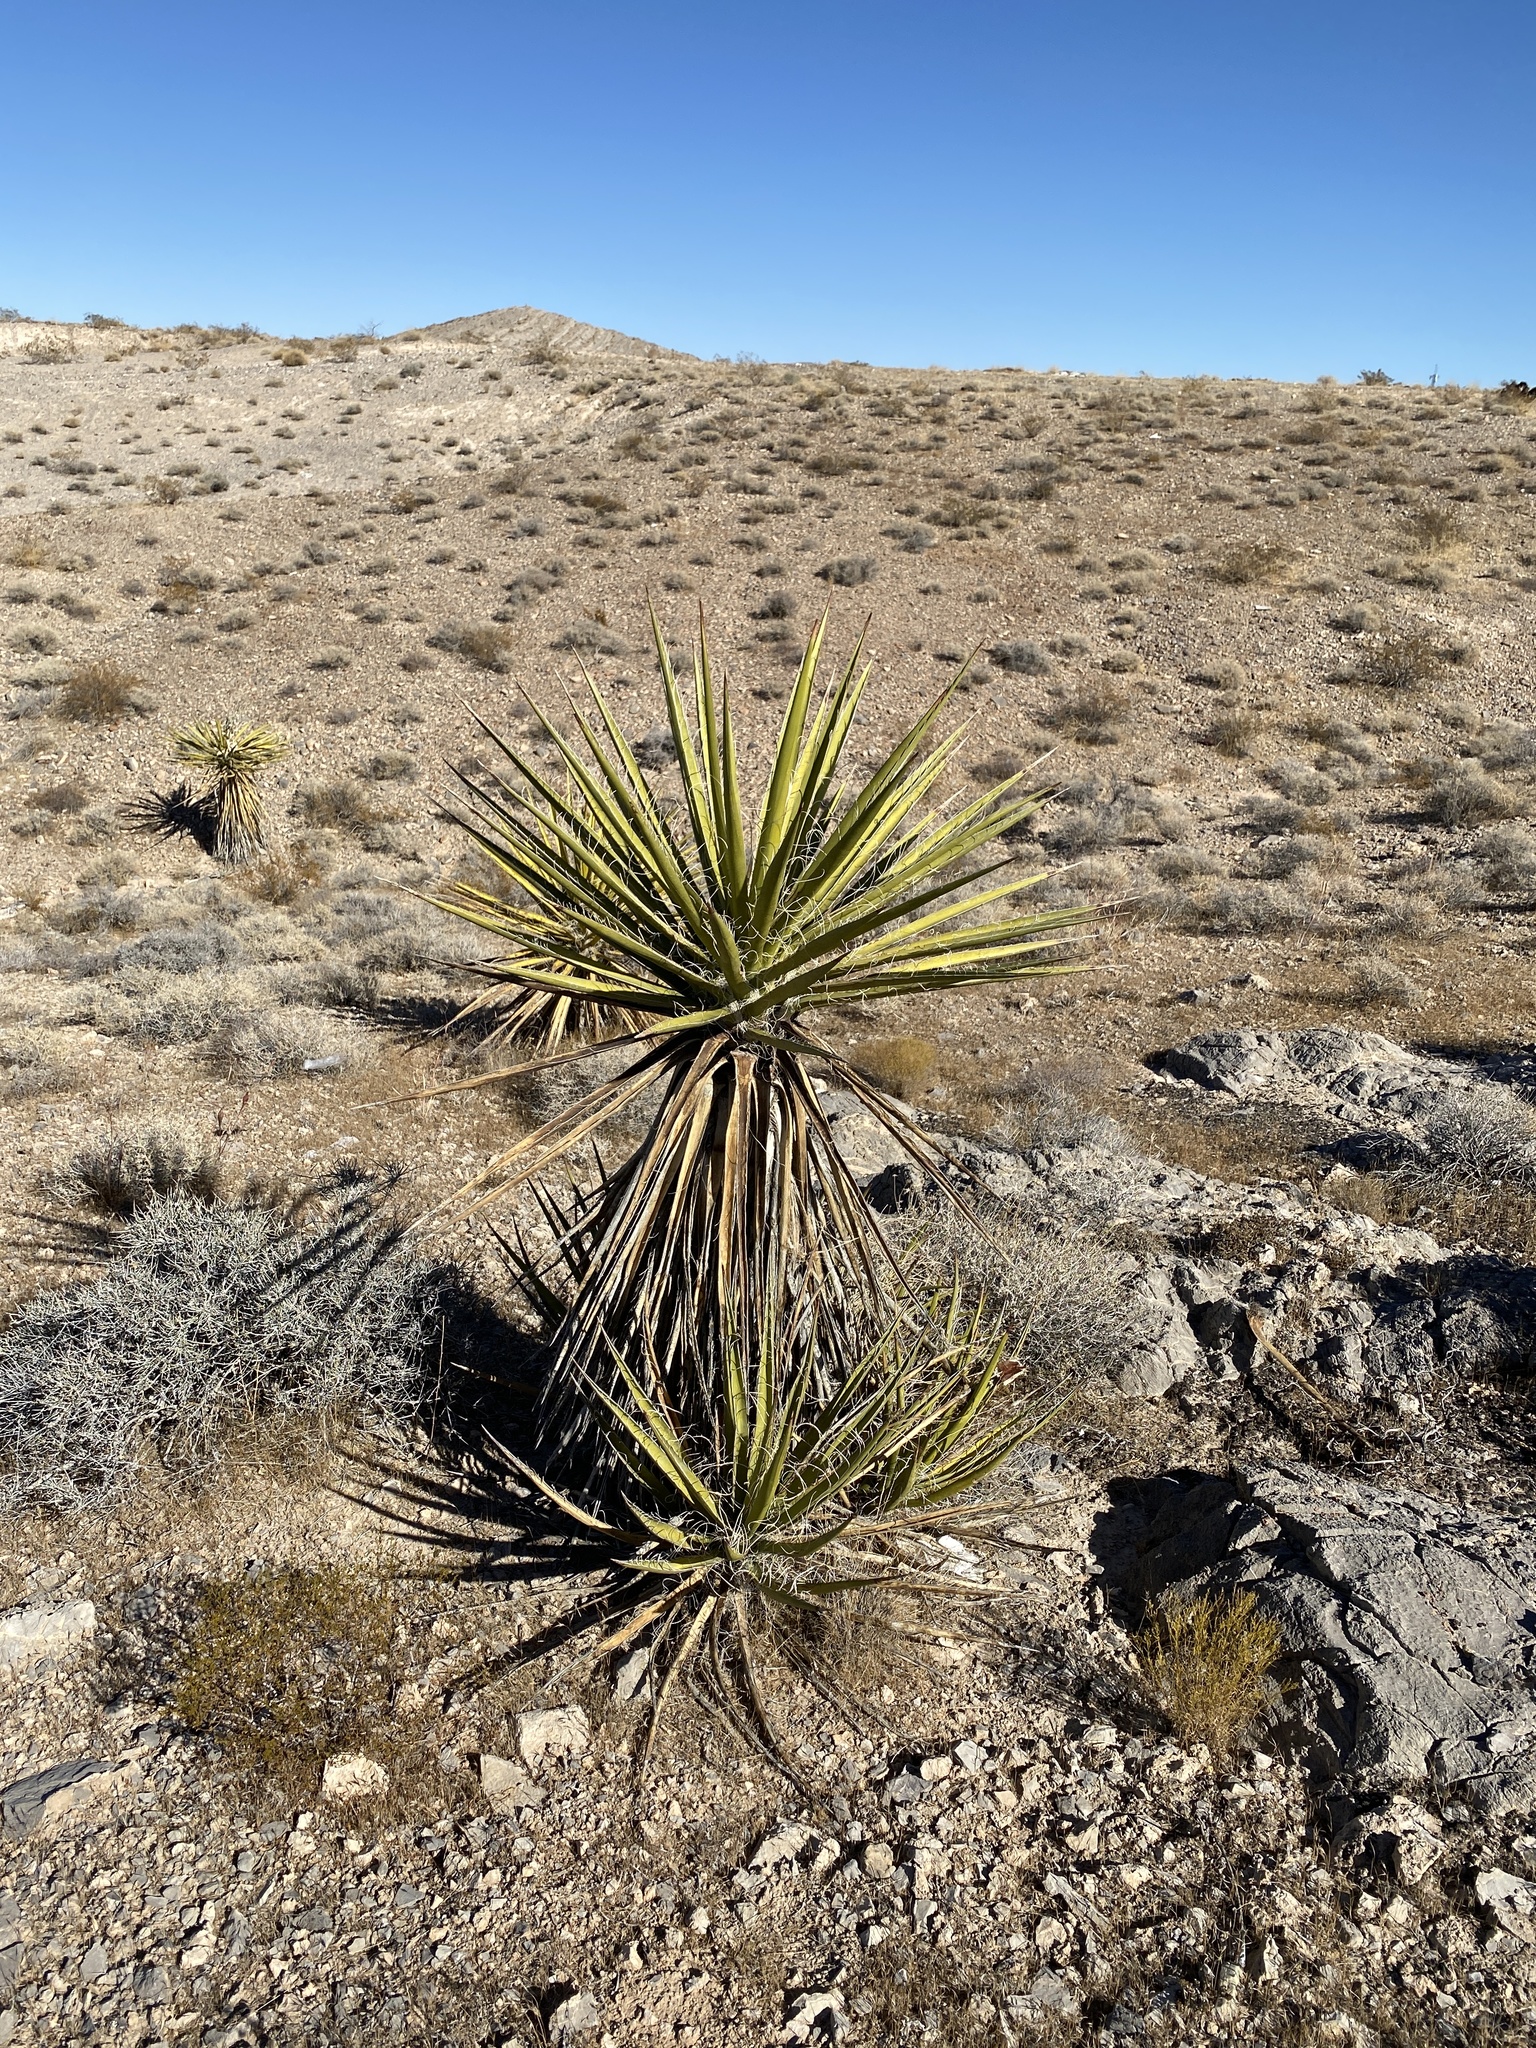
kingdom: Plantae
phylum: Tracheophyta
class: Liliopsida
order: Asparagales
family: Asparagaceae
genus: Yucca
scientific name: Yucca schidigera
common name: Mojave yucca
